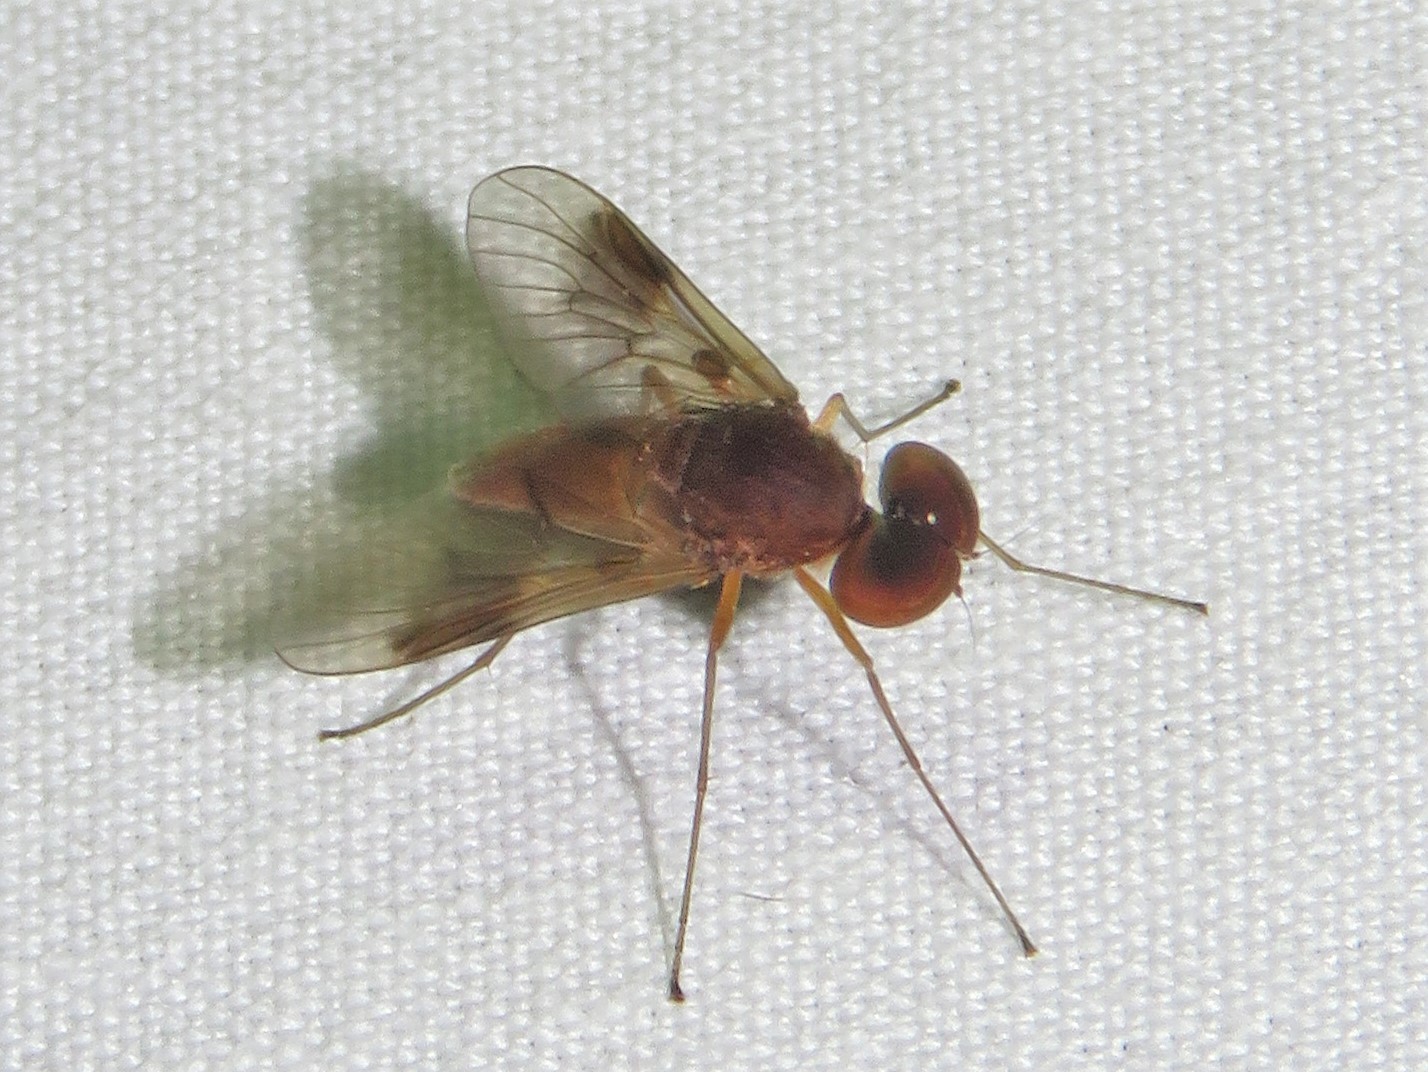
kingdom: Animalia
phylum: Arthropoda
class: Insecta
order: Diptera
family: Rhagionidae
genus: Chrysopilus
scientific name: Chrysopilus quadratus
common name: Quadrate snipe fly
